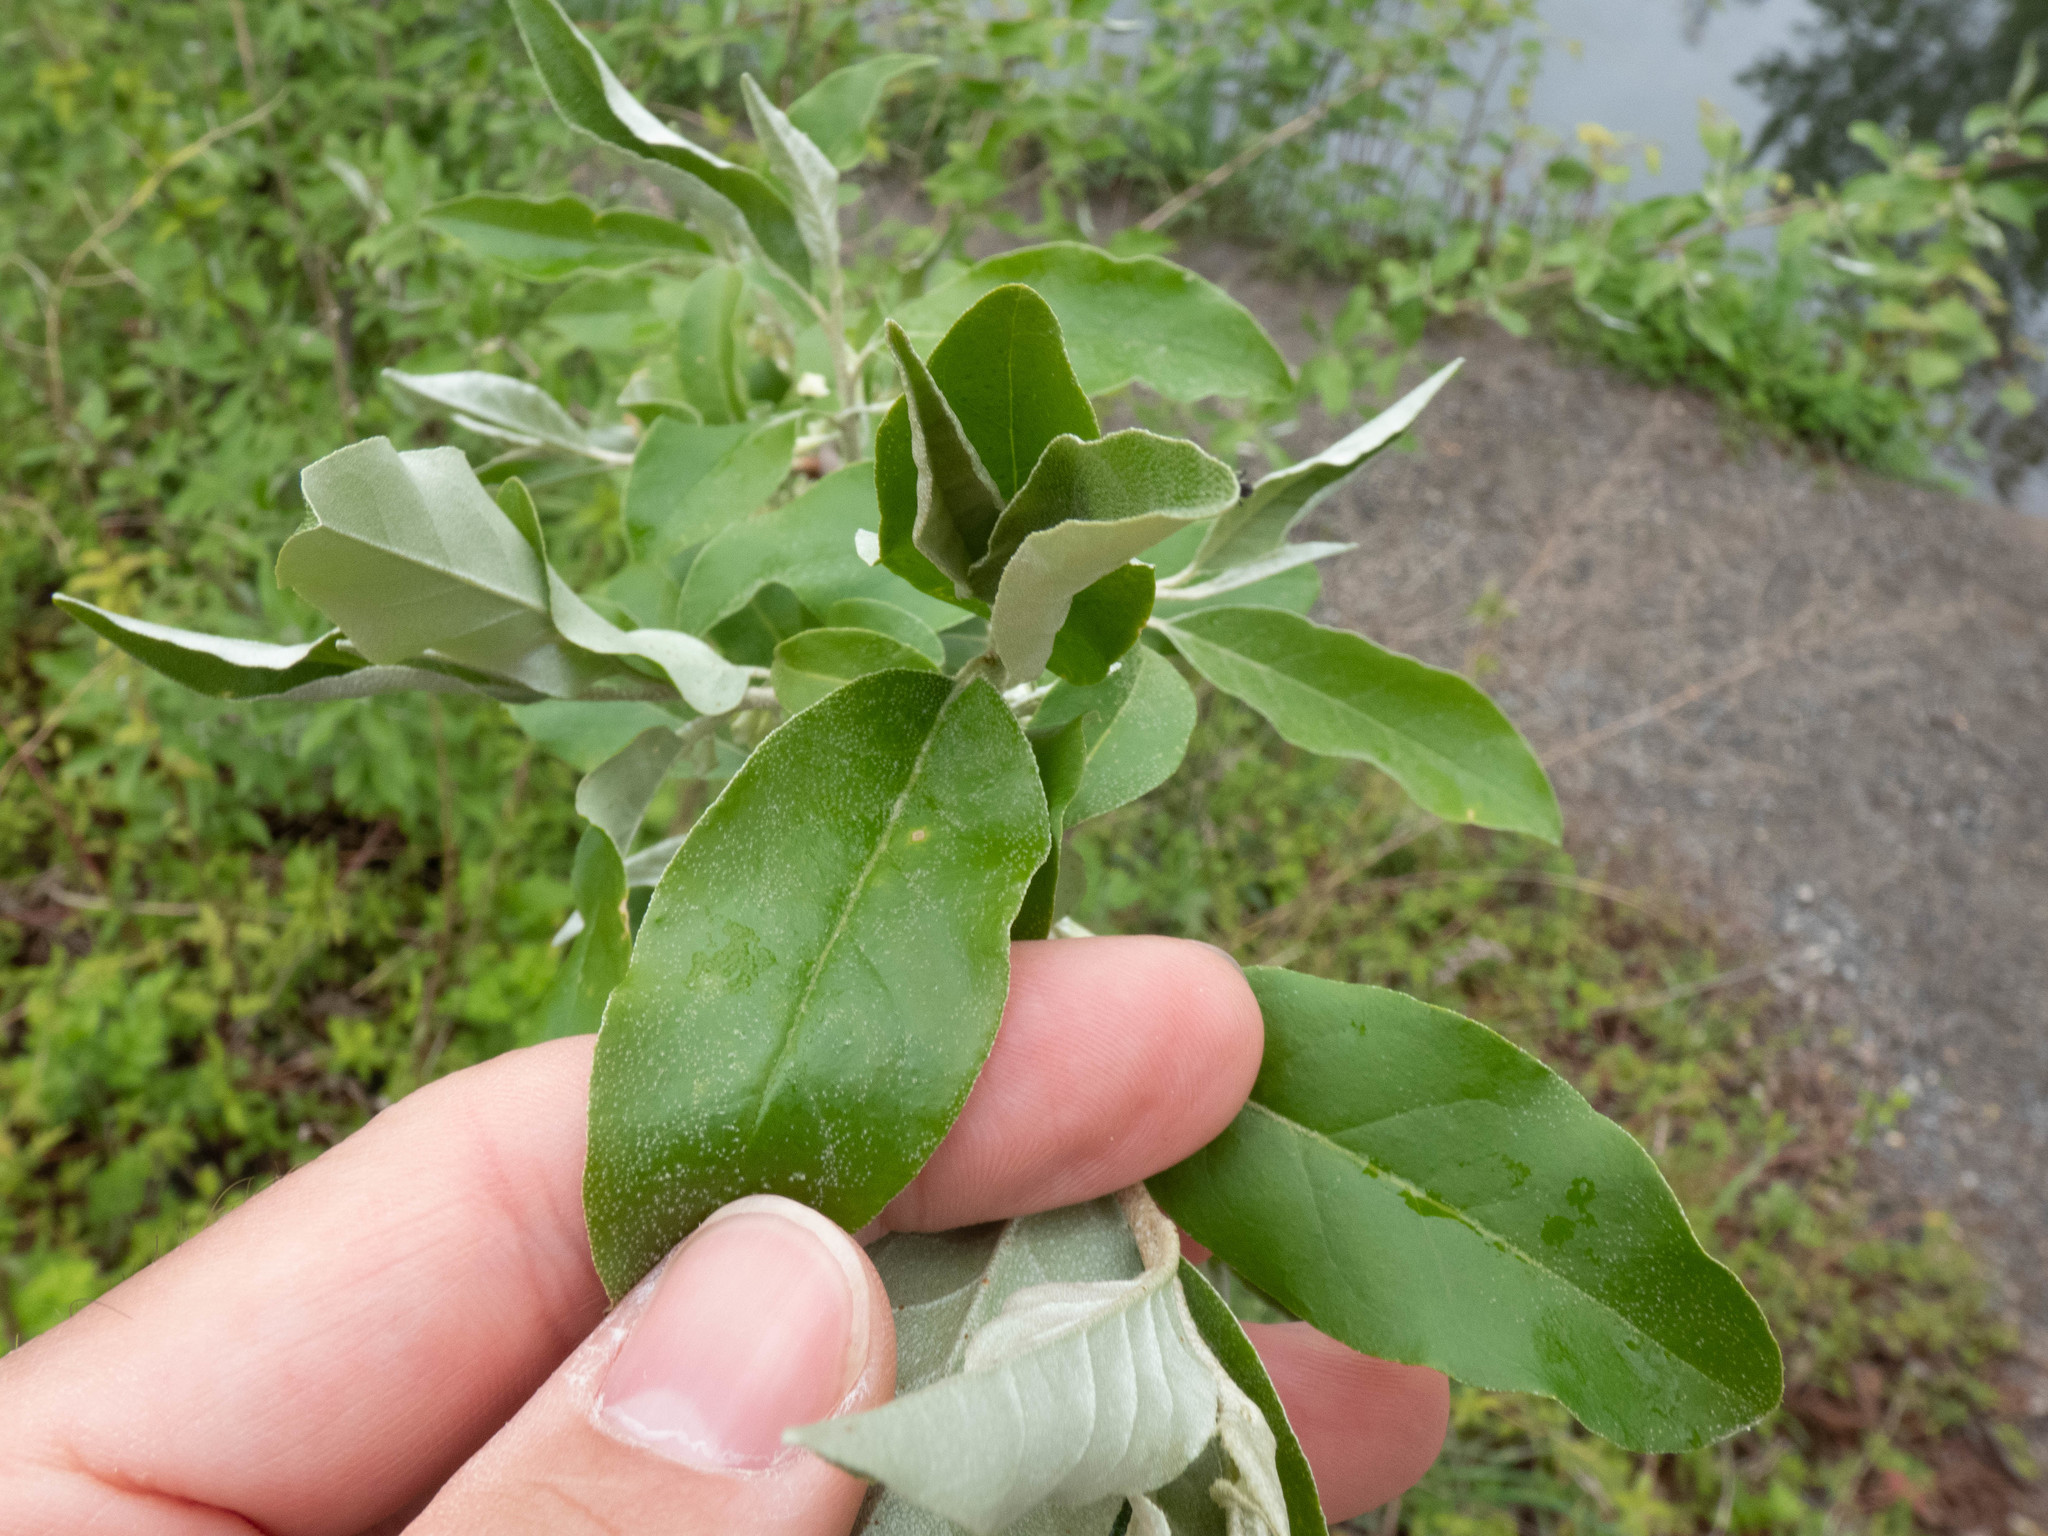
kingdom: Plantae
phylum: Tracheophyta
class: Magnoliopsida
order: Rosales
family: Elaeagnaceae
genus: Elaeagnus
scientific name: Elaeagnus umbellata
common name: Autumn olive
